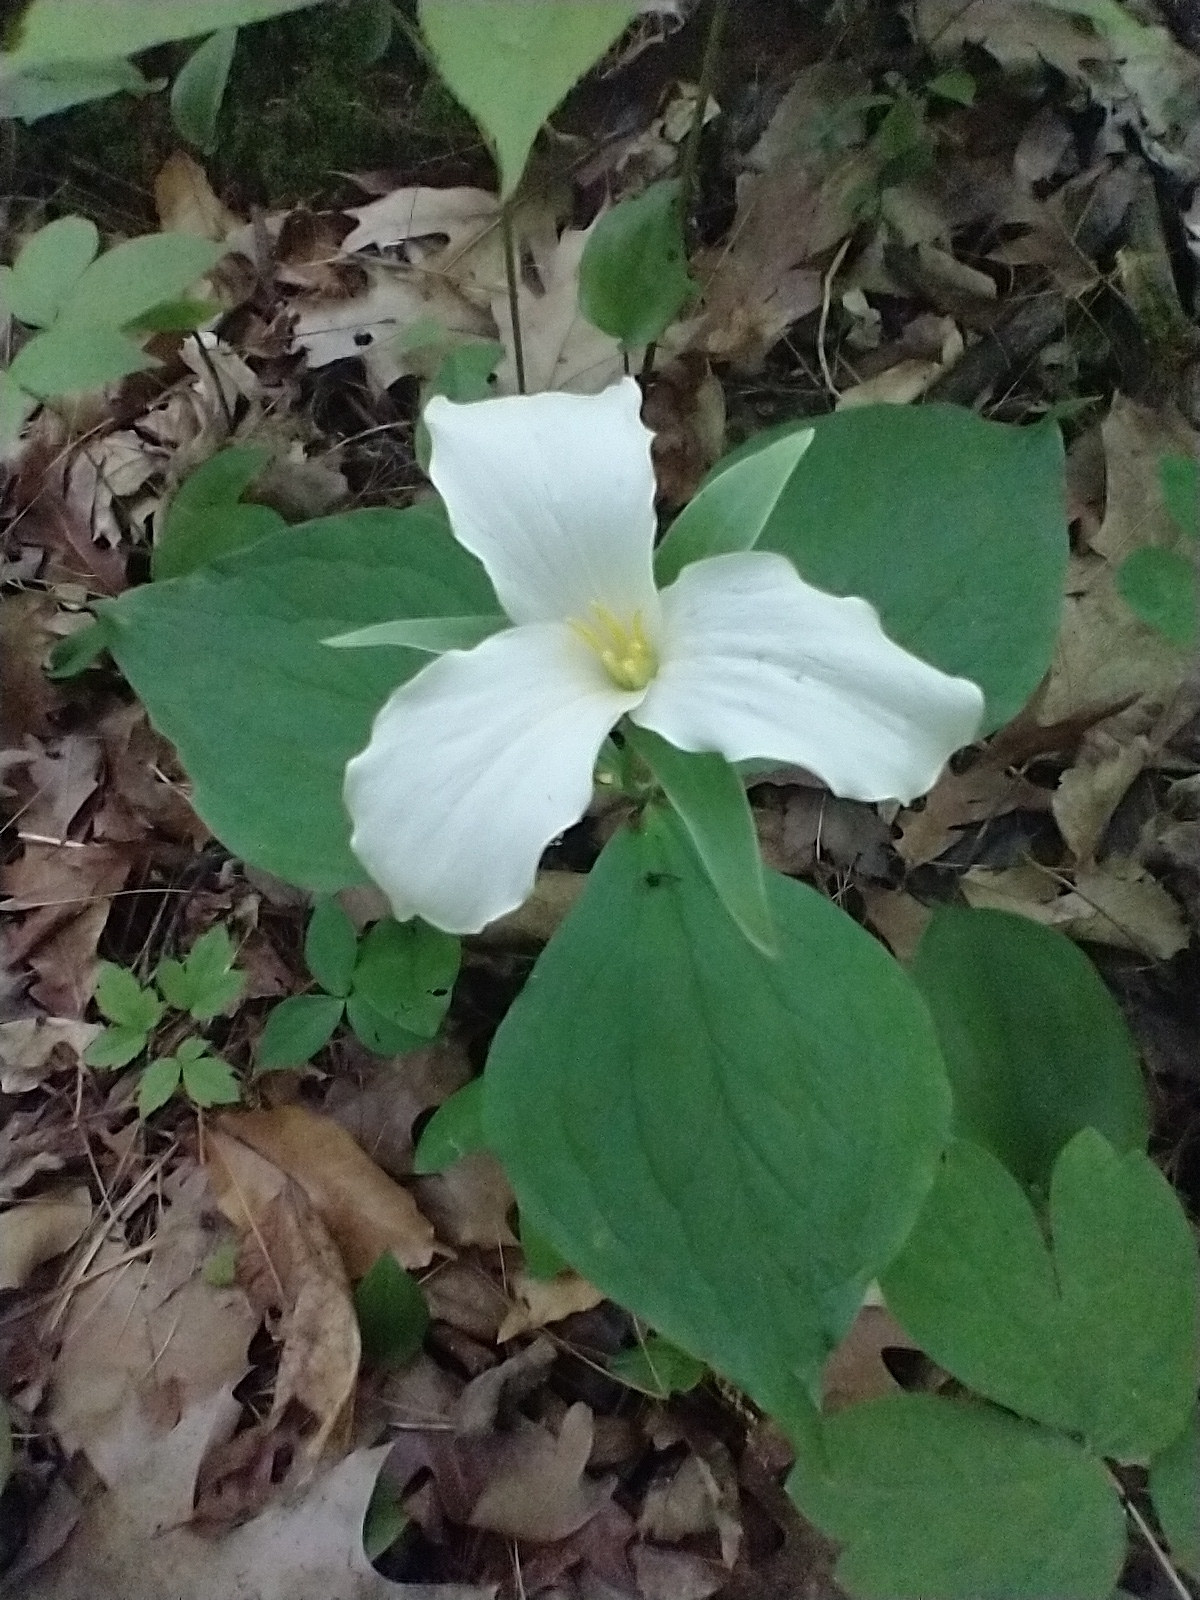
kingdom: Plantae
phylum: Tracheophyta
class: Liliopsida
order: Liliales
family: Melanthiaceae
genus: Trillium
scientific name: Trillium grandiflorum
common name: Great white trillium
